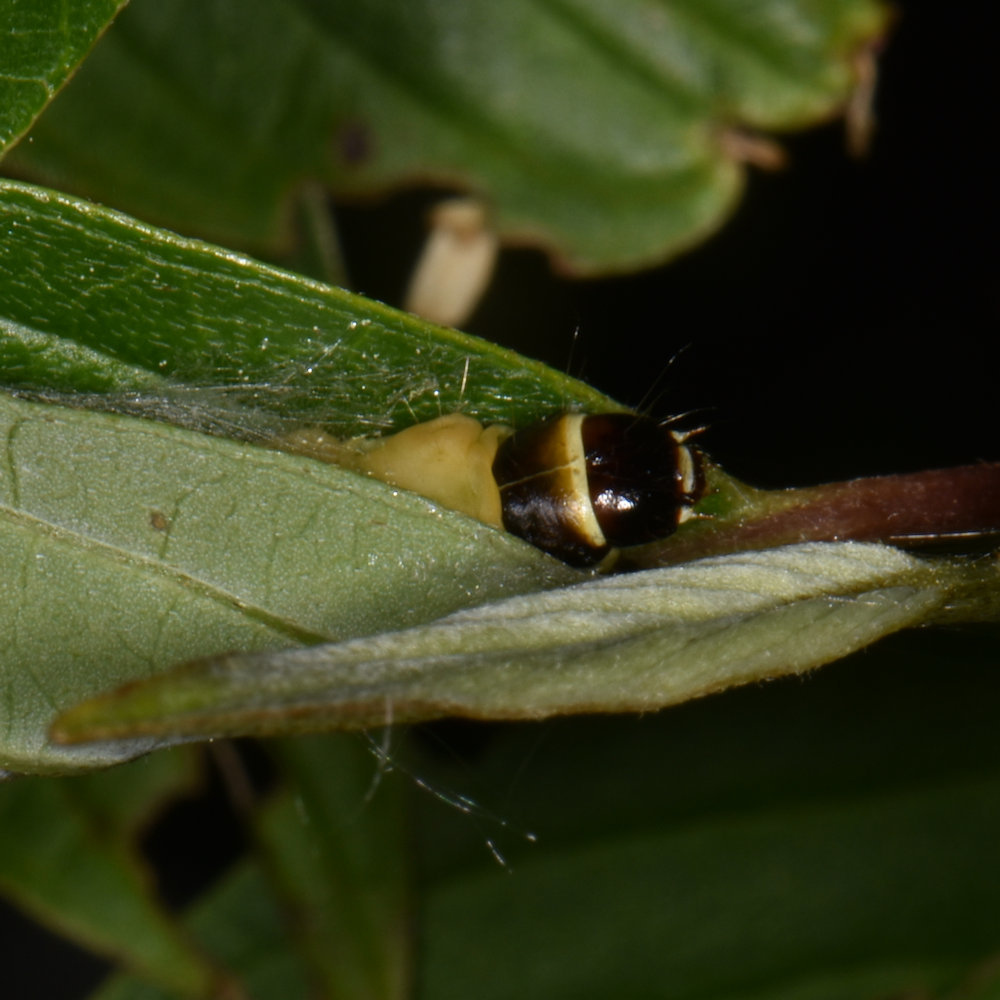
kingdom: Animalia
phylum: Arthropoda
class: Insecta
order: Lepidoptera
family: Tortricidae
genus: Olethreutes
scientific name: Olethreutes connectum
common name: Bunchberry leaffolder moth
